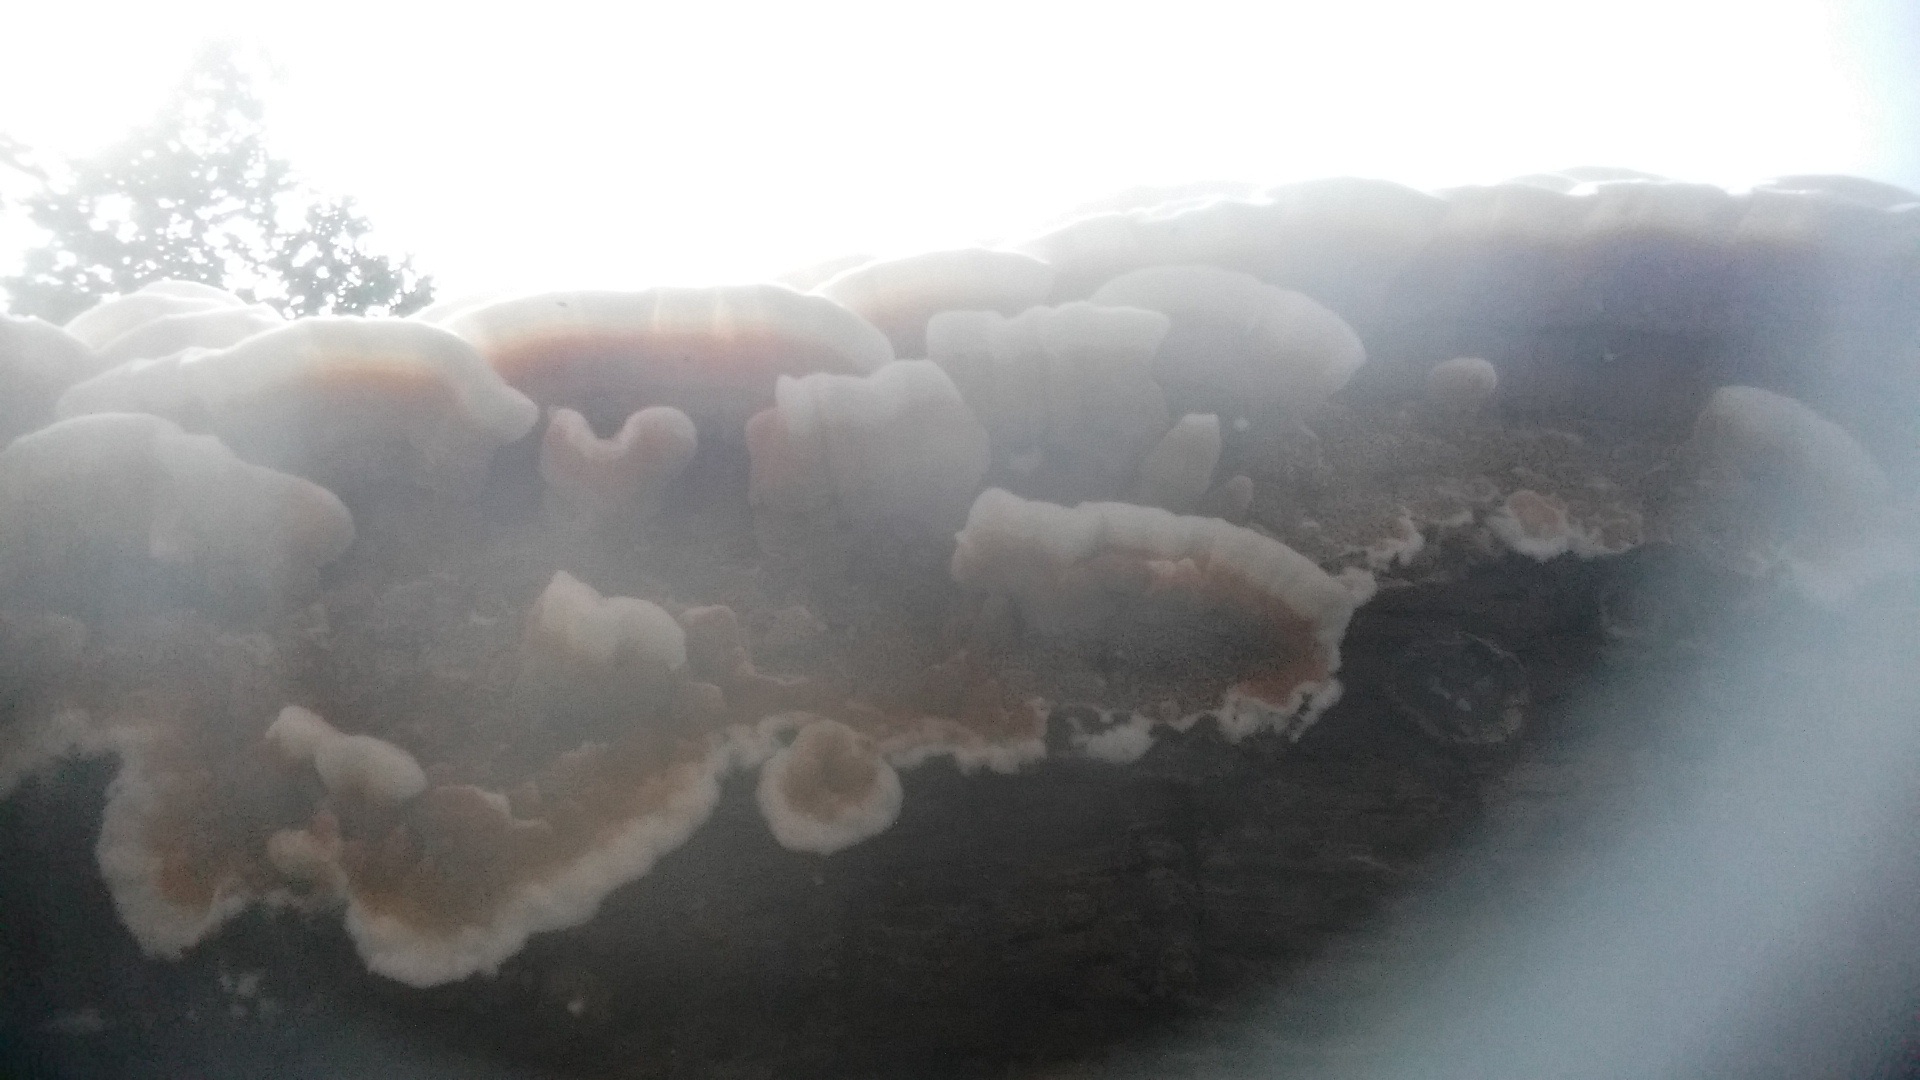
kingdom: Fungi
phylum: Basidiomycota
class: Agaricomycetes
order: Polyporales
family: Irpicaceae
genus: Vitreoporus
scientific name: Vitreoporus dichrous
